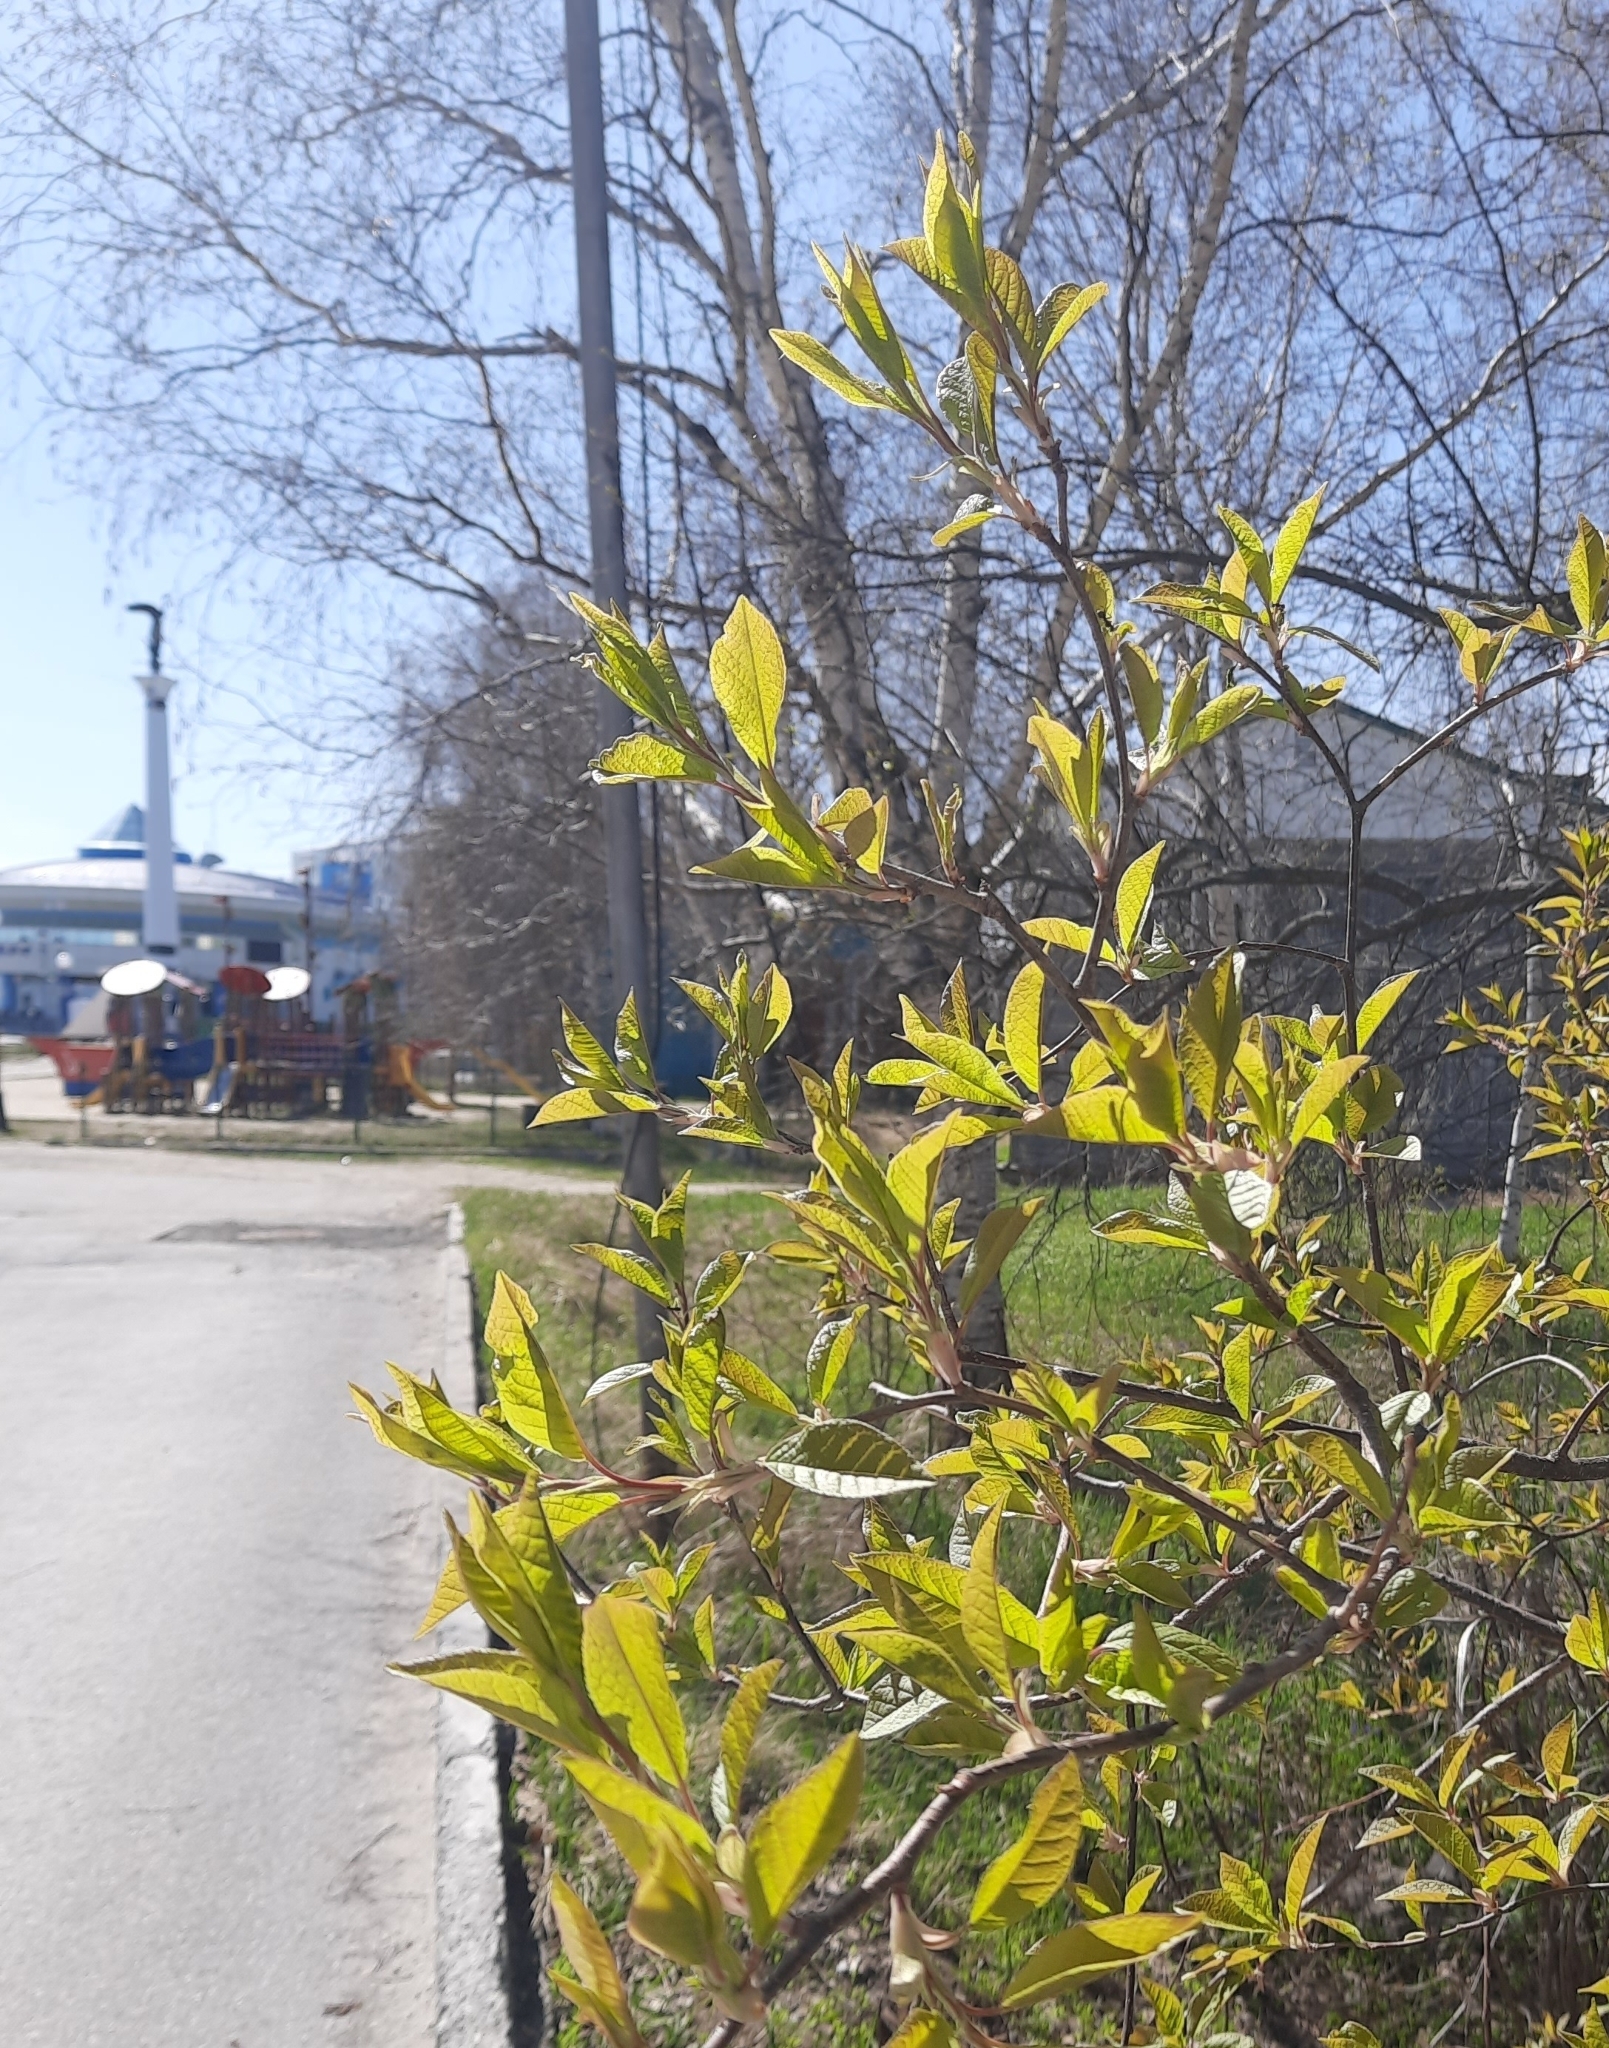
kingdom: Plantae
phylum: Tracheophyta
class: Magnoliopsida
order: Rosales
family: Rosaceae
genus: Prunus
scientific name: Prunus padus
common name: Bird cherry
